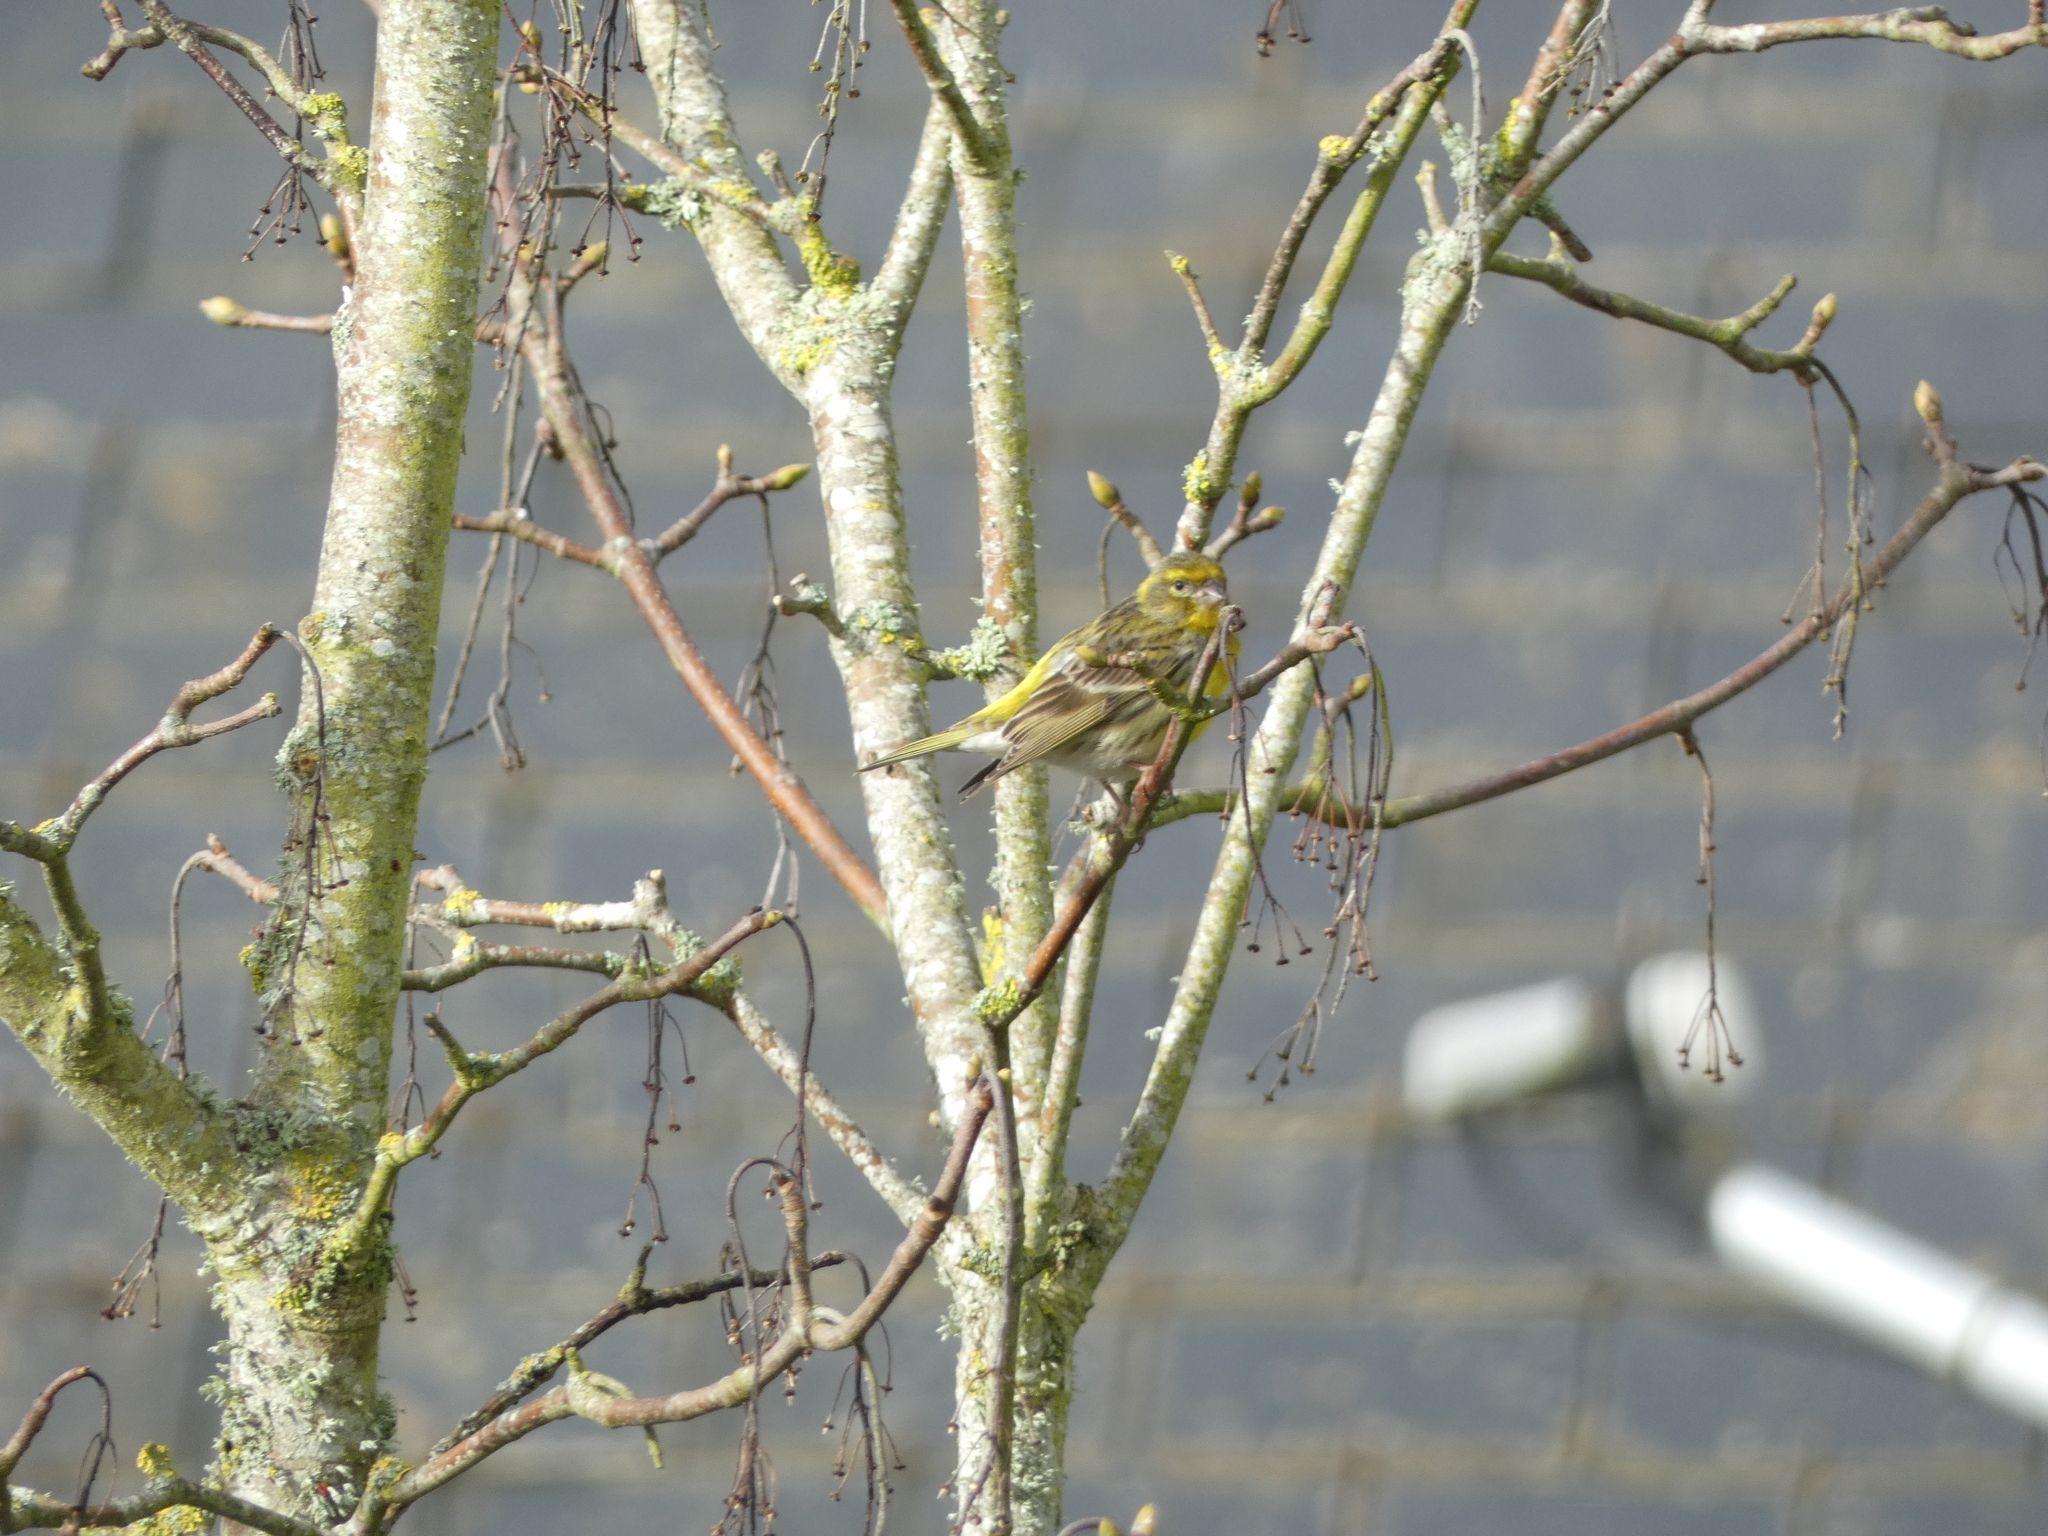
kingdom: Animalia
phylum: Chordata
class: Aves
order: Passeriformes
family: Fringillidae
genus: Serinus
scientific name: Serinus serinus
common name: European serin
